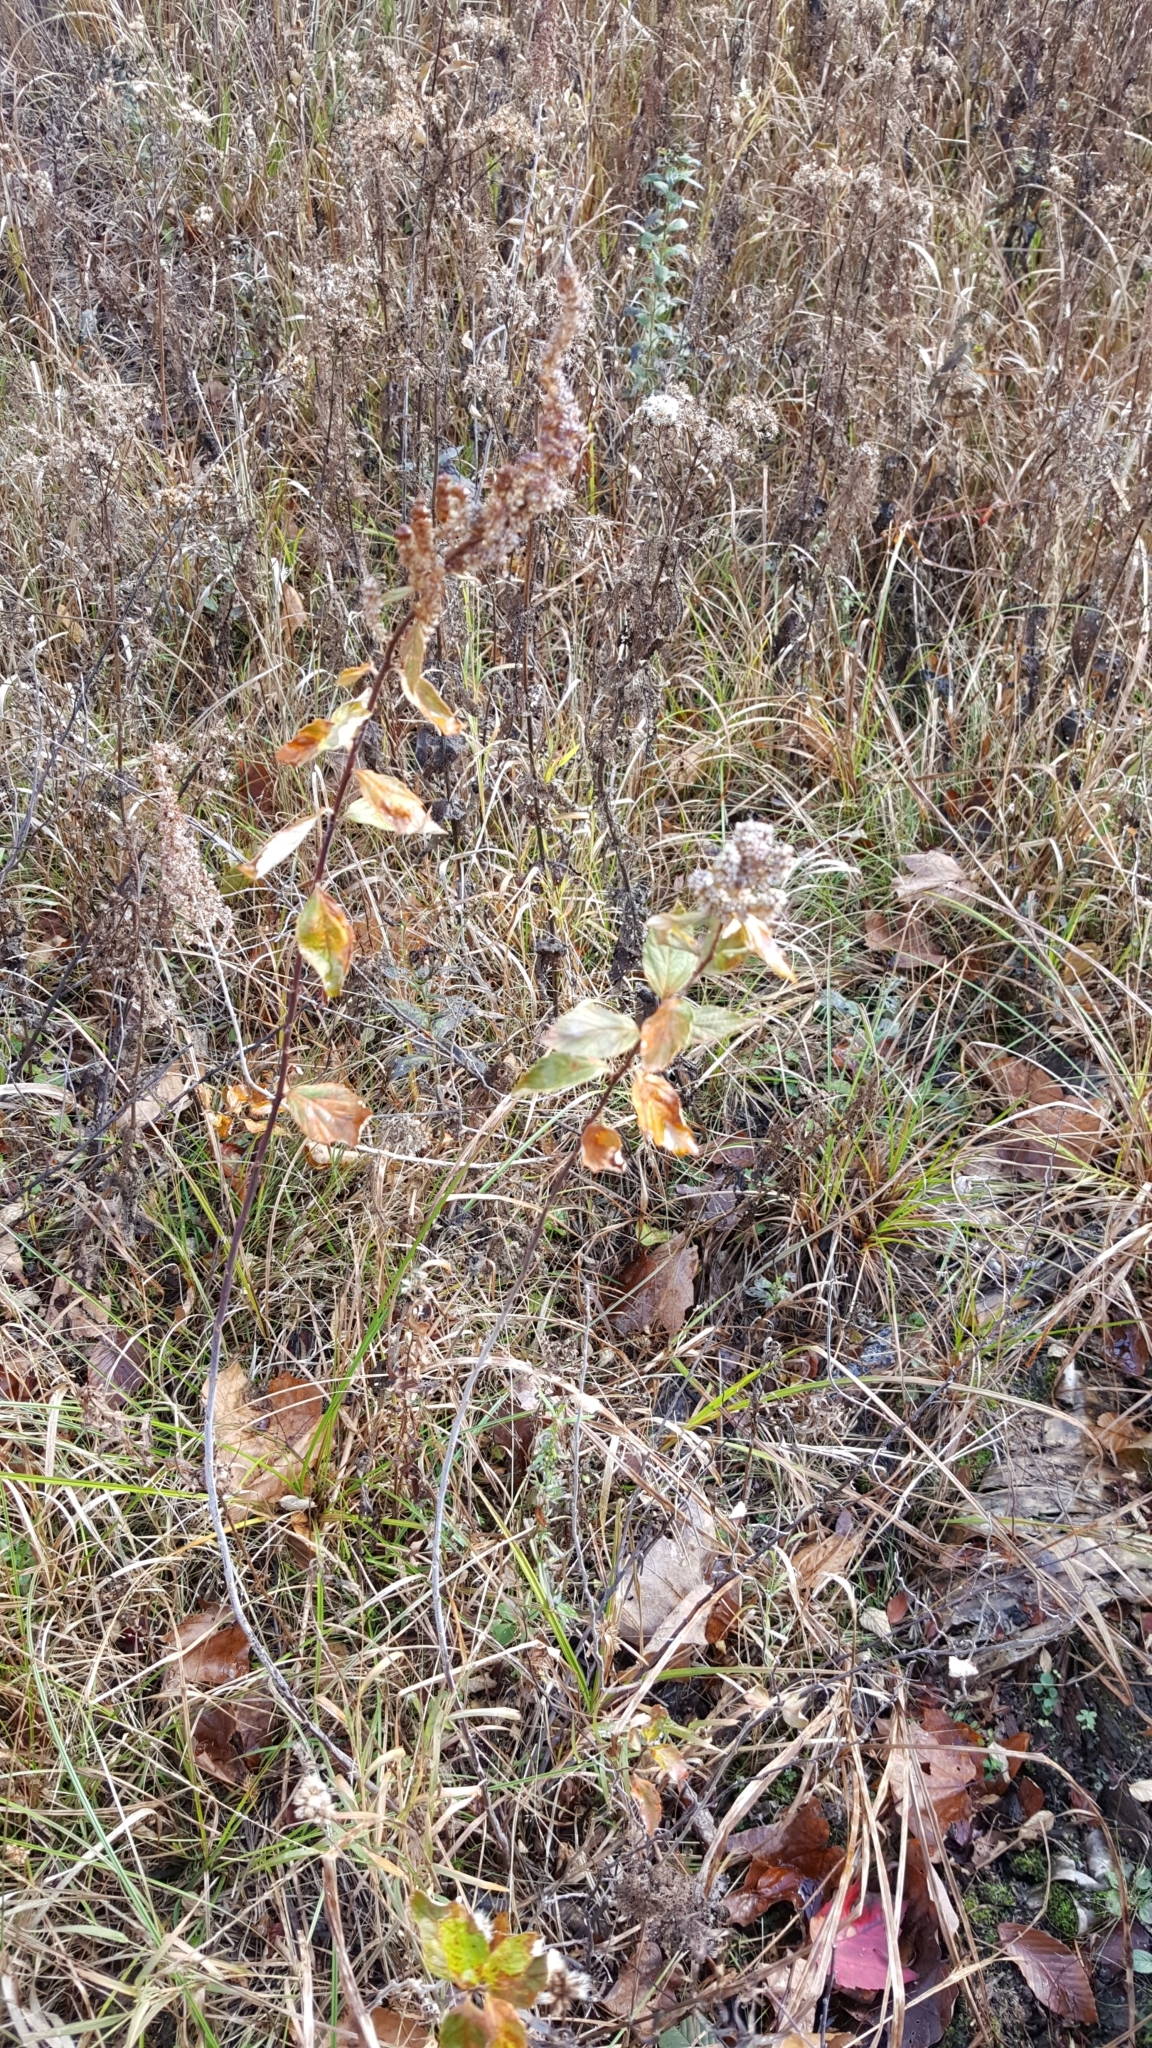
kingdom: Plantae
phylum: Tracheophyta
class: Magnoliopsida
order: Rosales
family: Rosaceae
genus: Spiraea
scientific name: Spiraea tomentosa
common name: Hardhack
